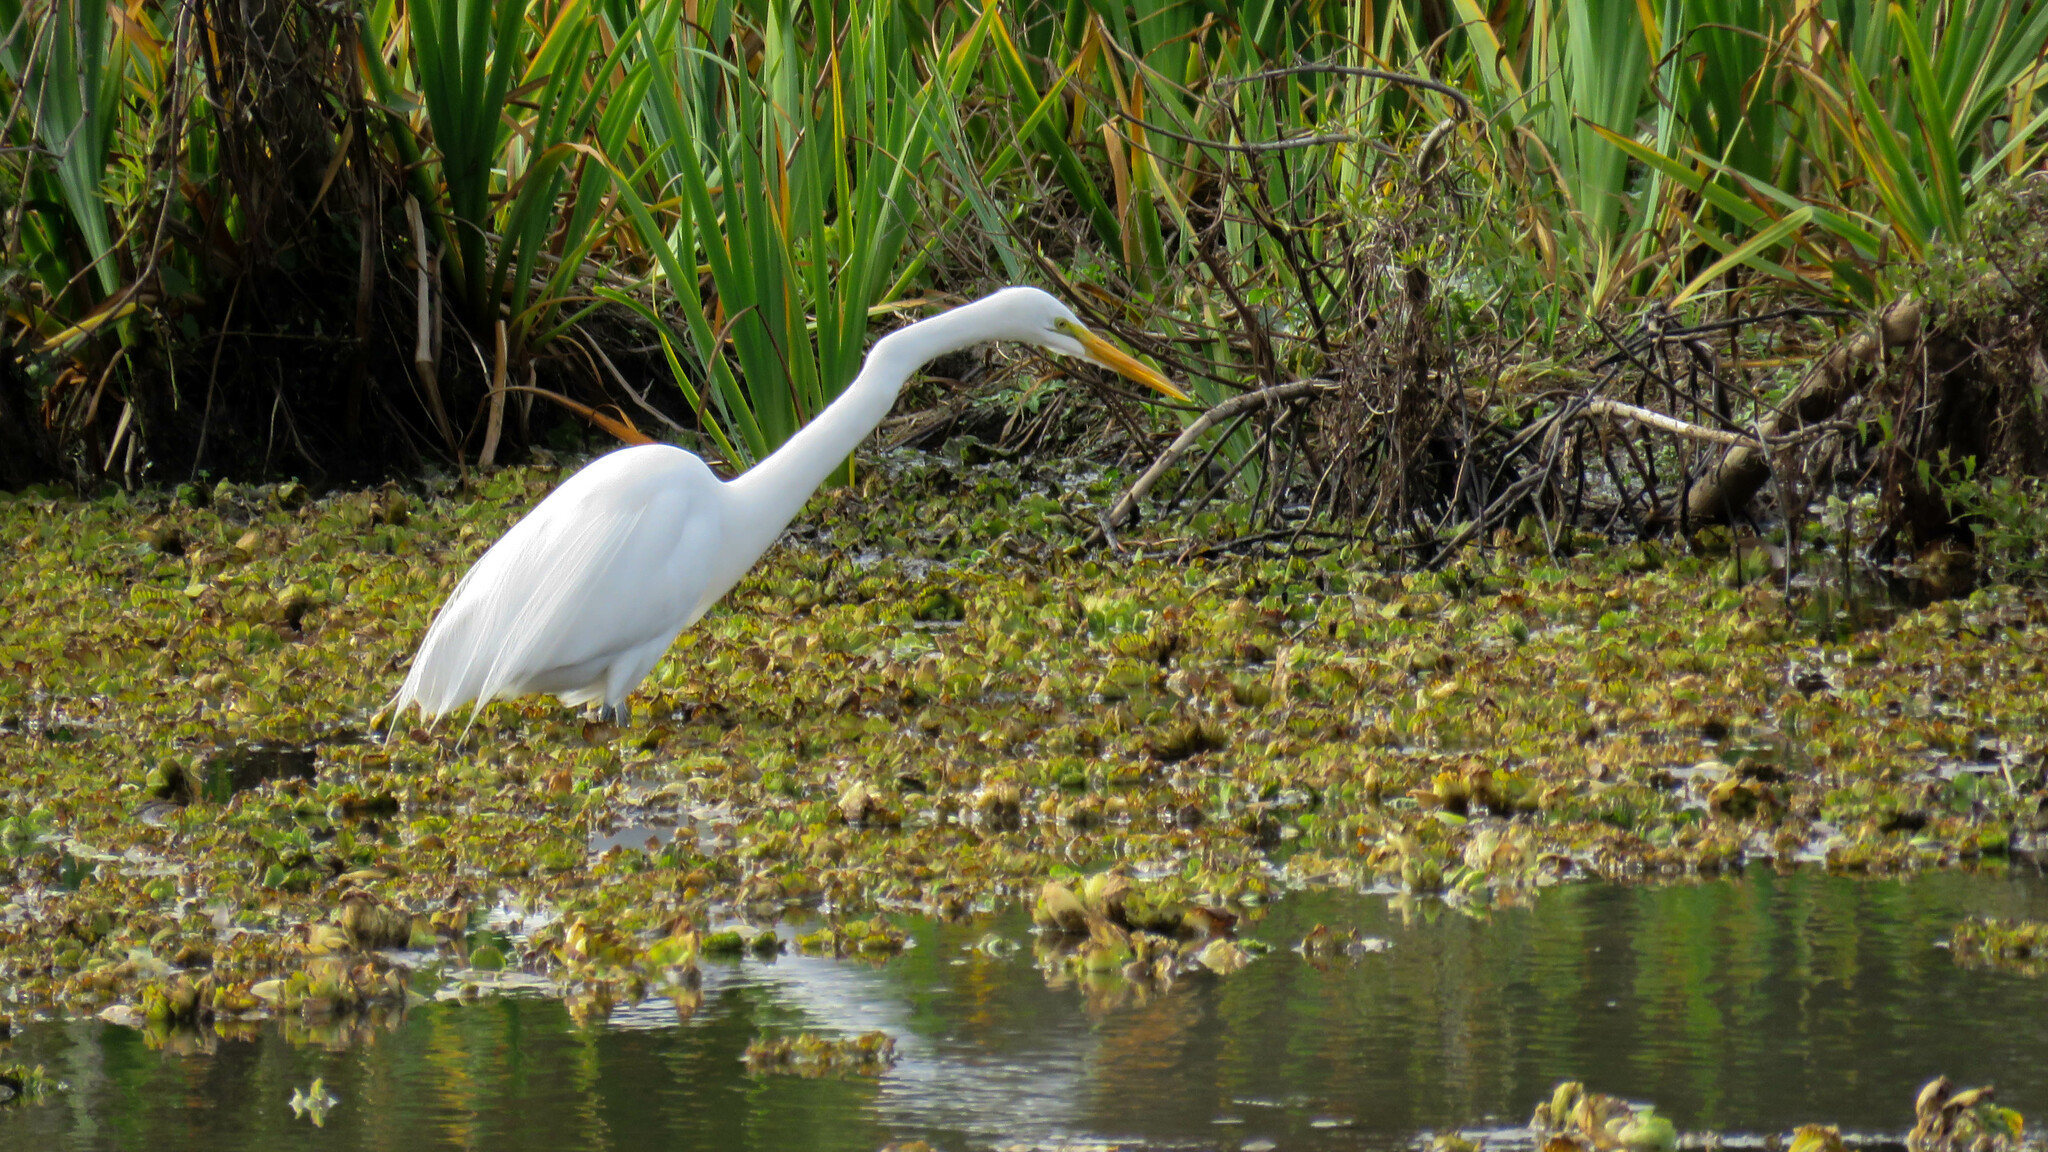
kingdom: Animalia
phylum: Chordata
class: Aves
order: Pelecaniformes
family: Ardeidae
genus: Ardea
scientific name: Ardea alba
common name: Great egret
